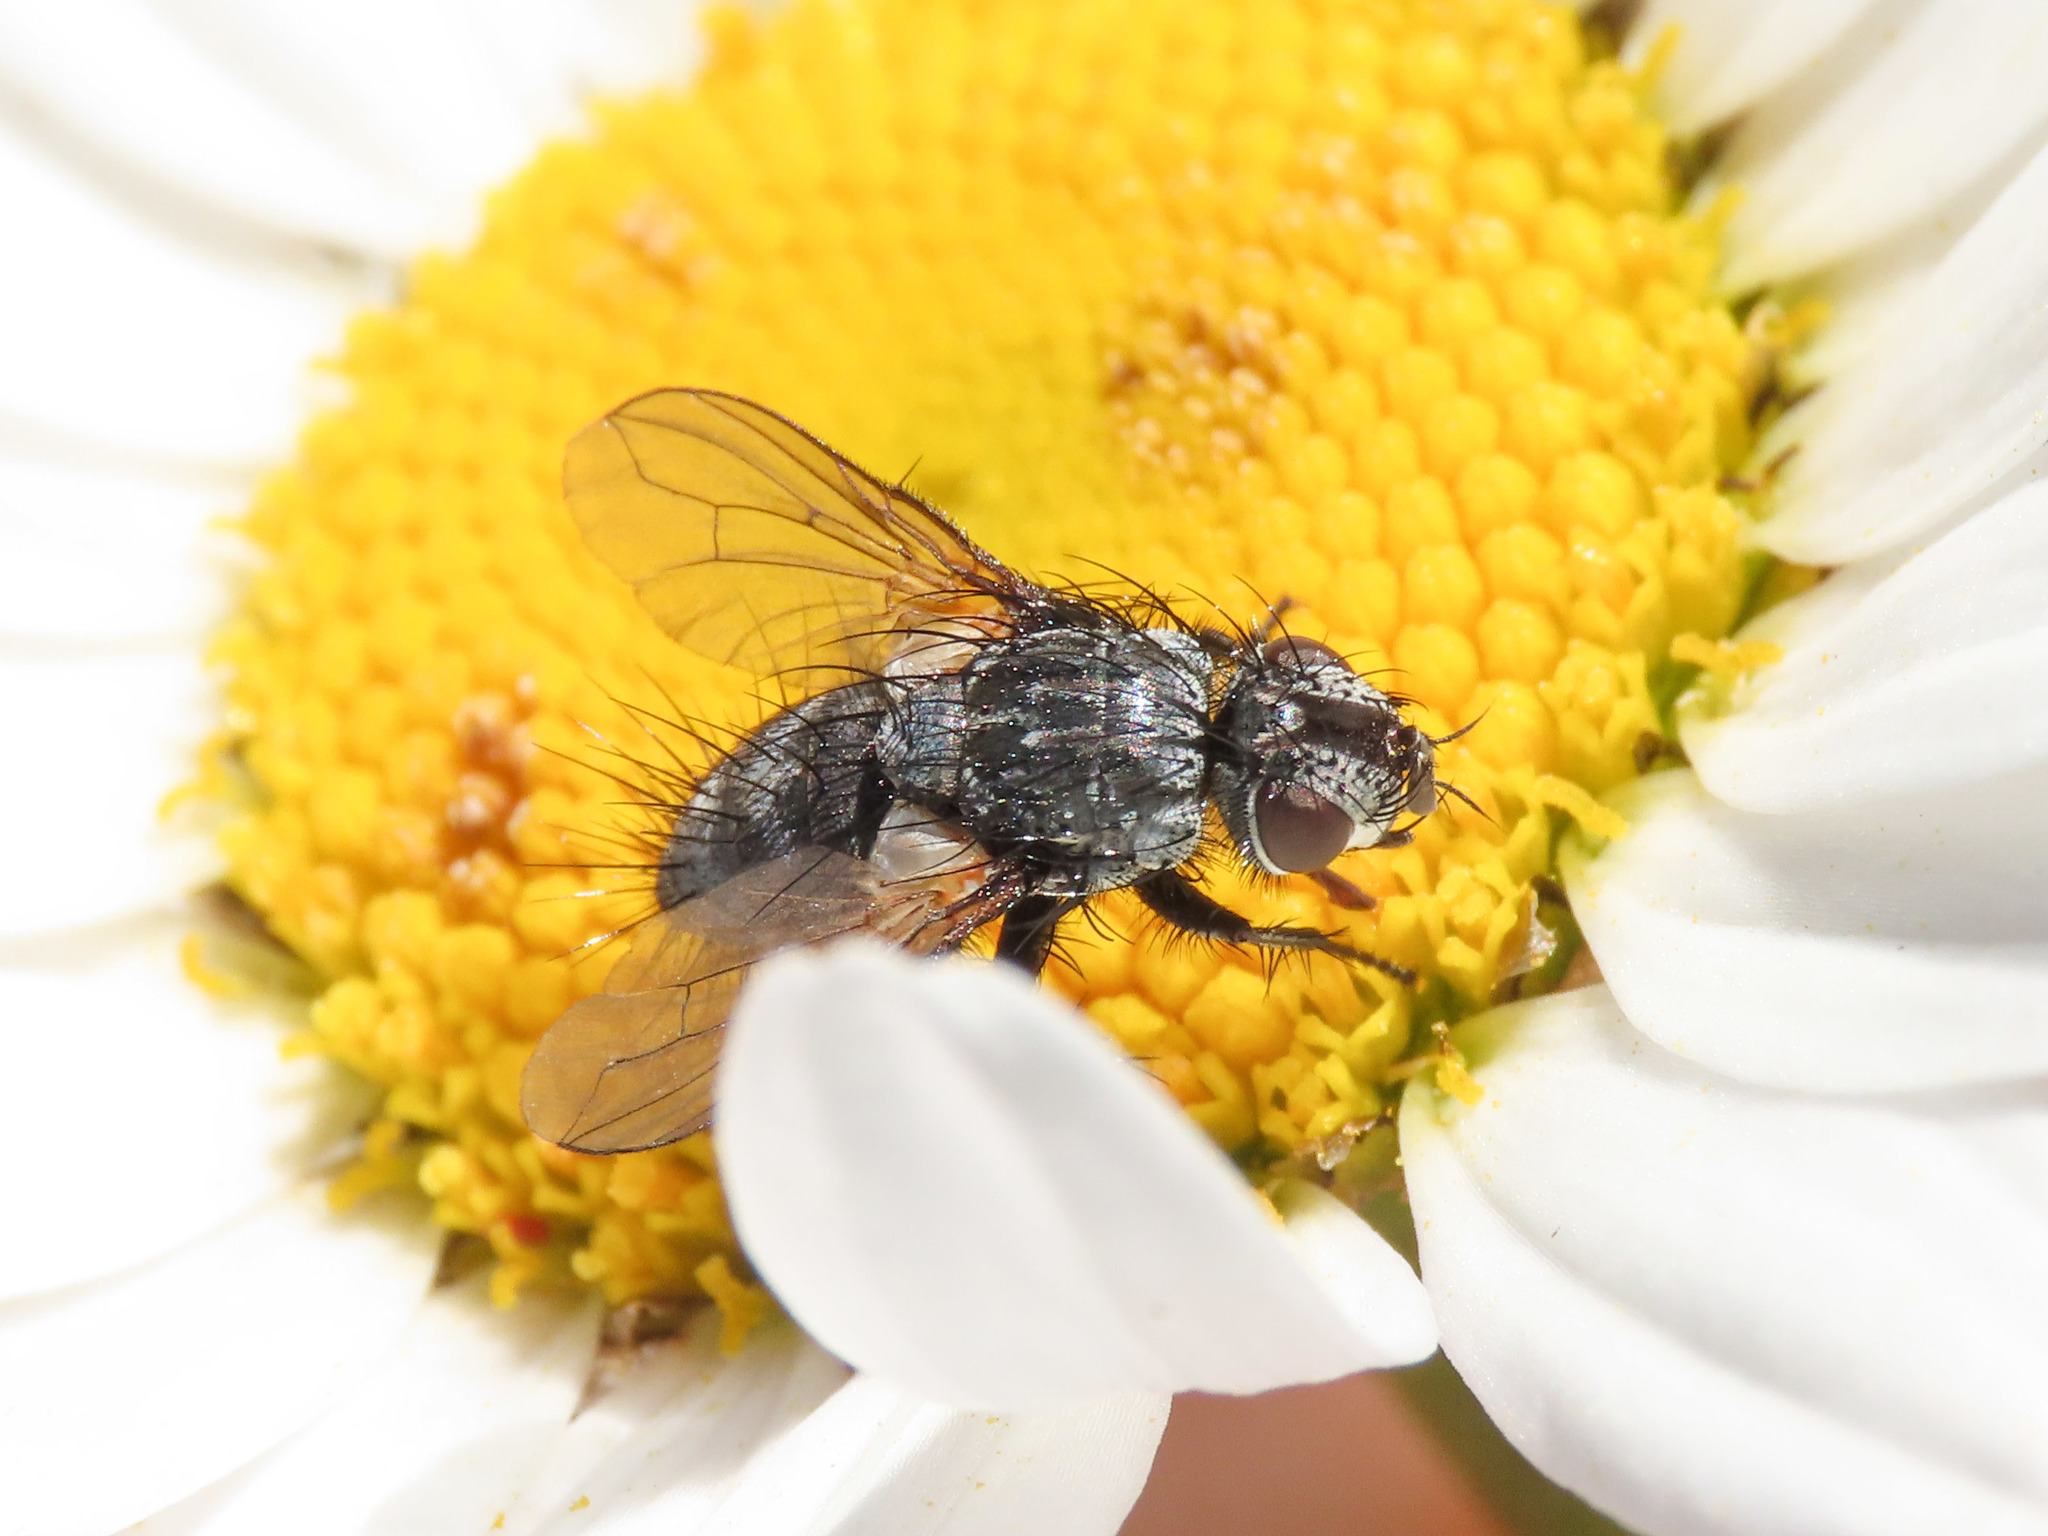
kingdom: Animalia
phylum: Arthropoda
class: Insecta
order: Diptera
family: Tachinidae
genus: Masistylum
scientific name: Masistylum arcuatum
